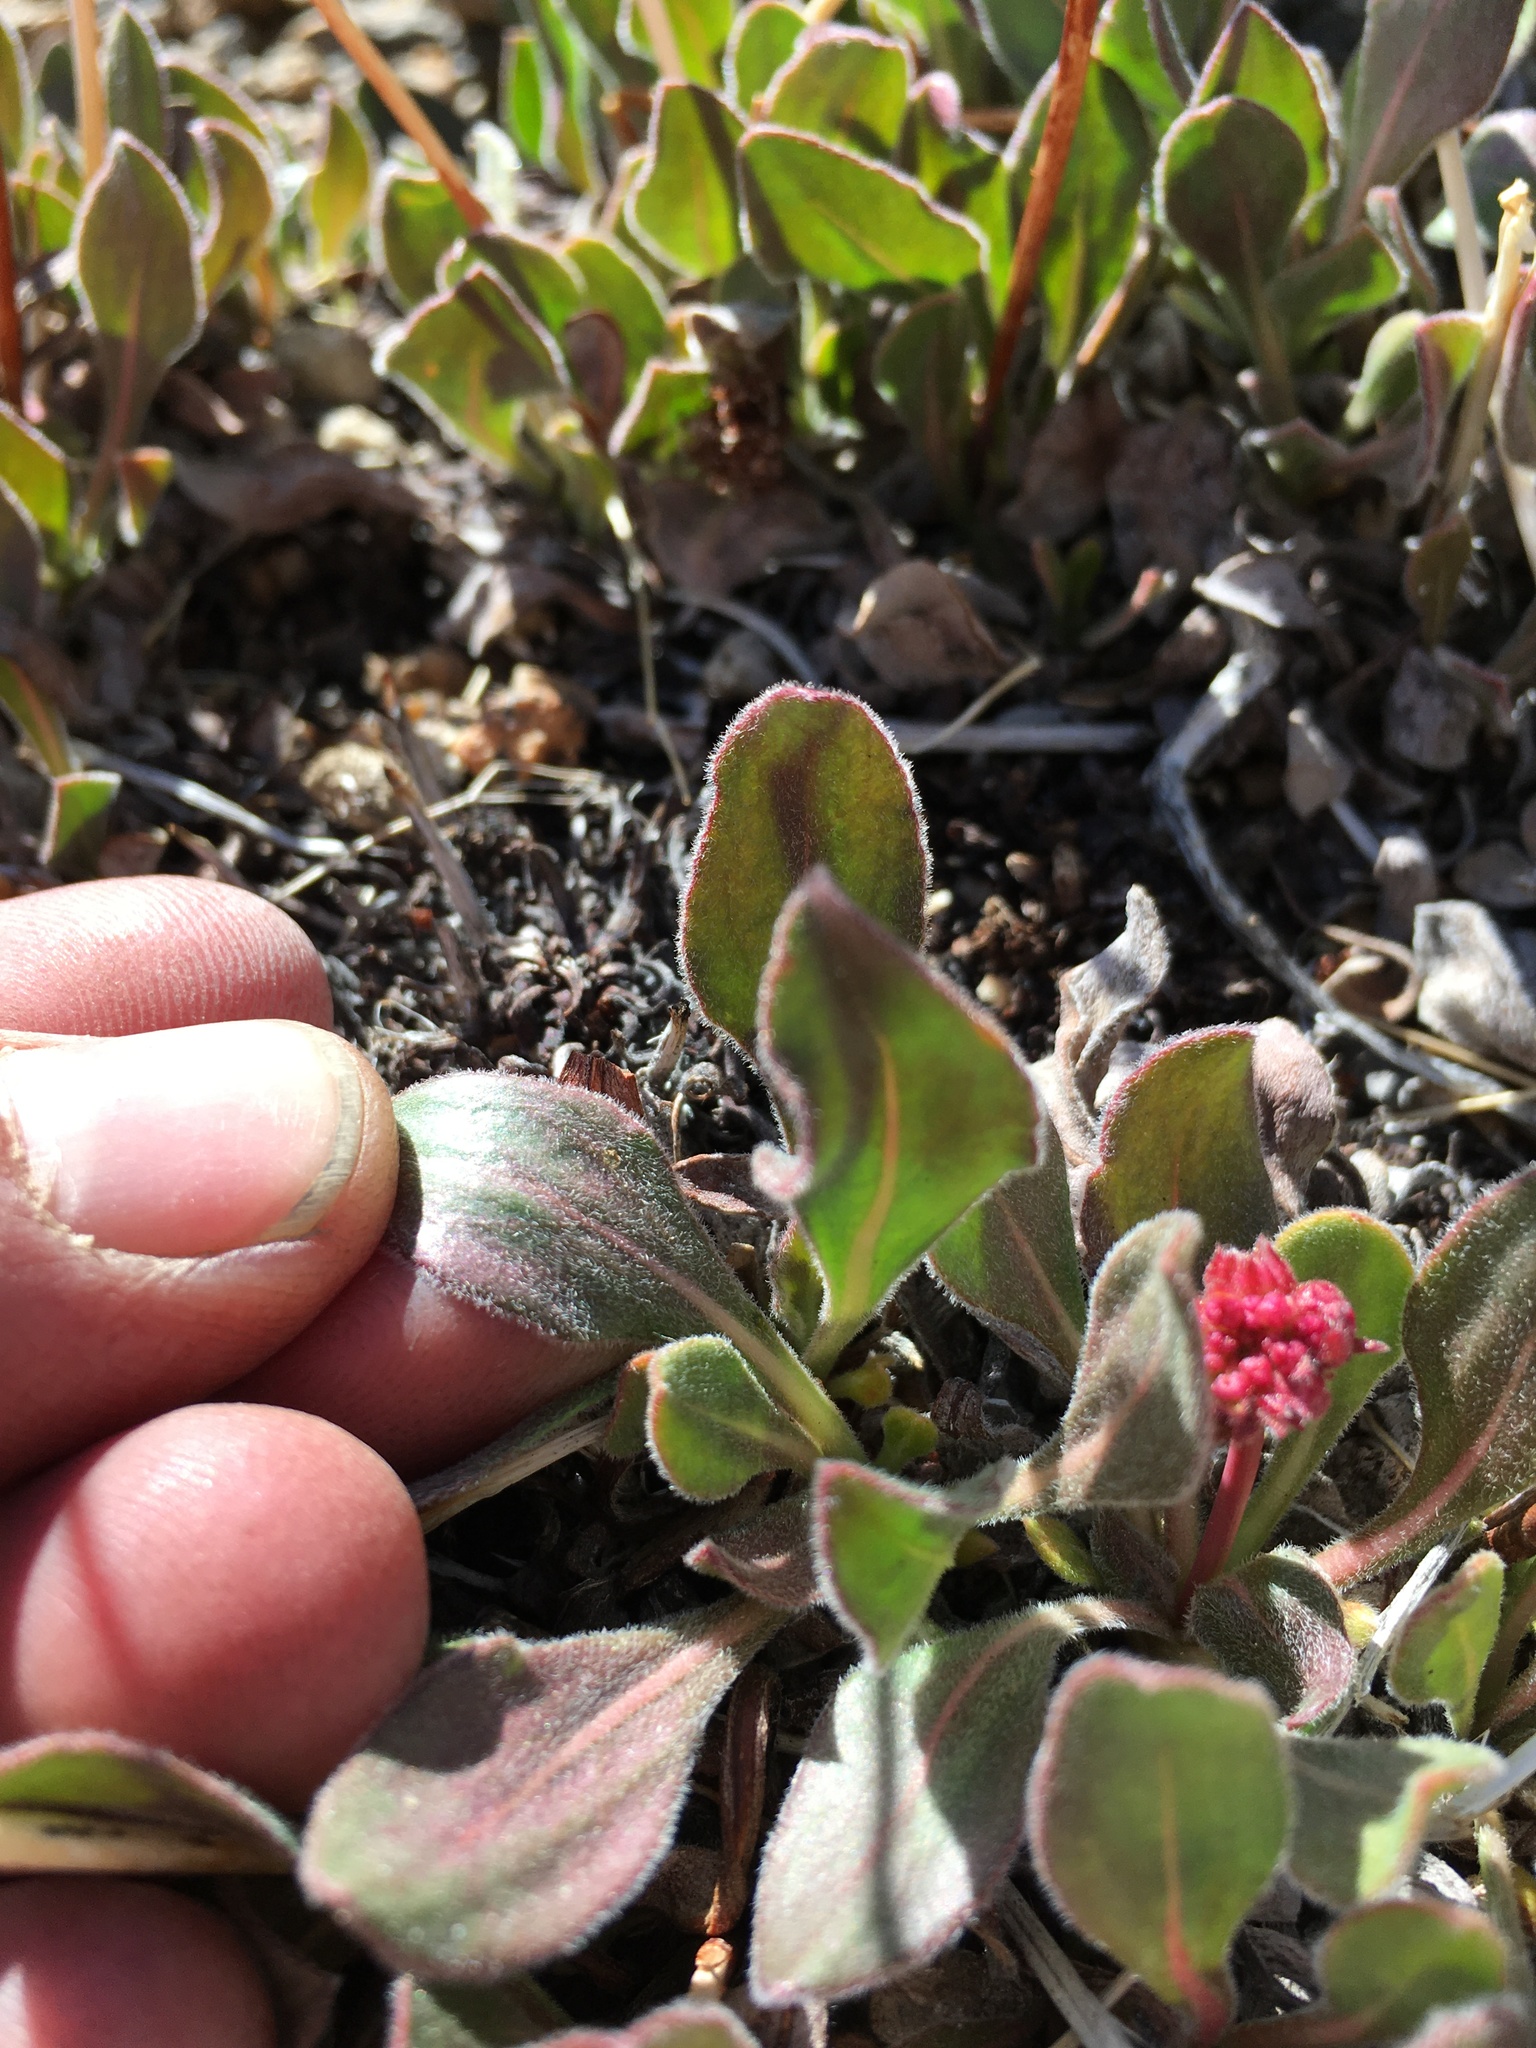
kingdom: Plantae
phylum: Tracheophyta
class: Magnoliopsida
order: Caryophyllales
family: Polygonaceae
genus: Eriogonum
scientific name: Eriogonum latens
